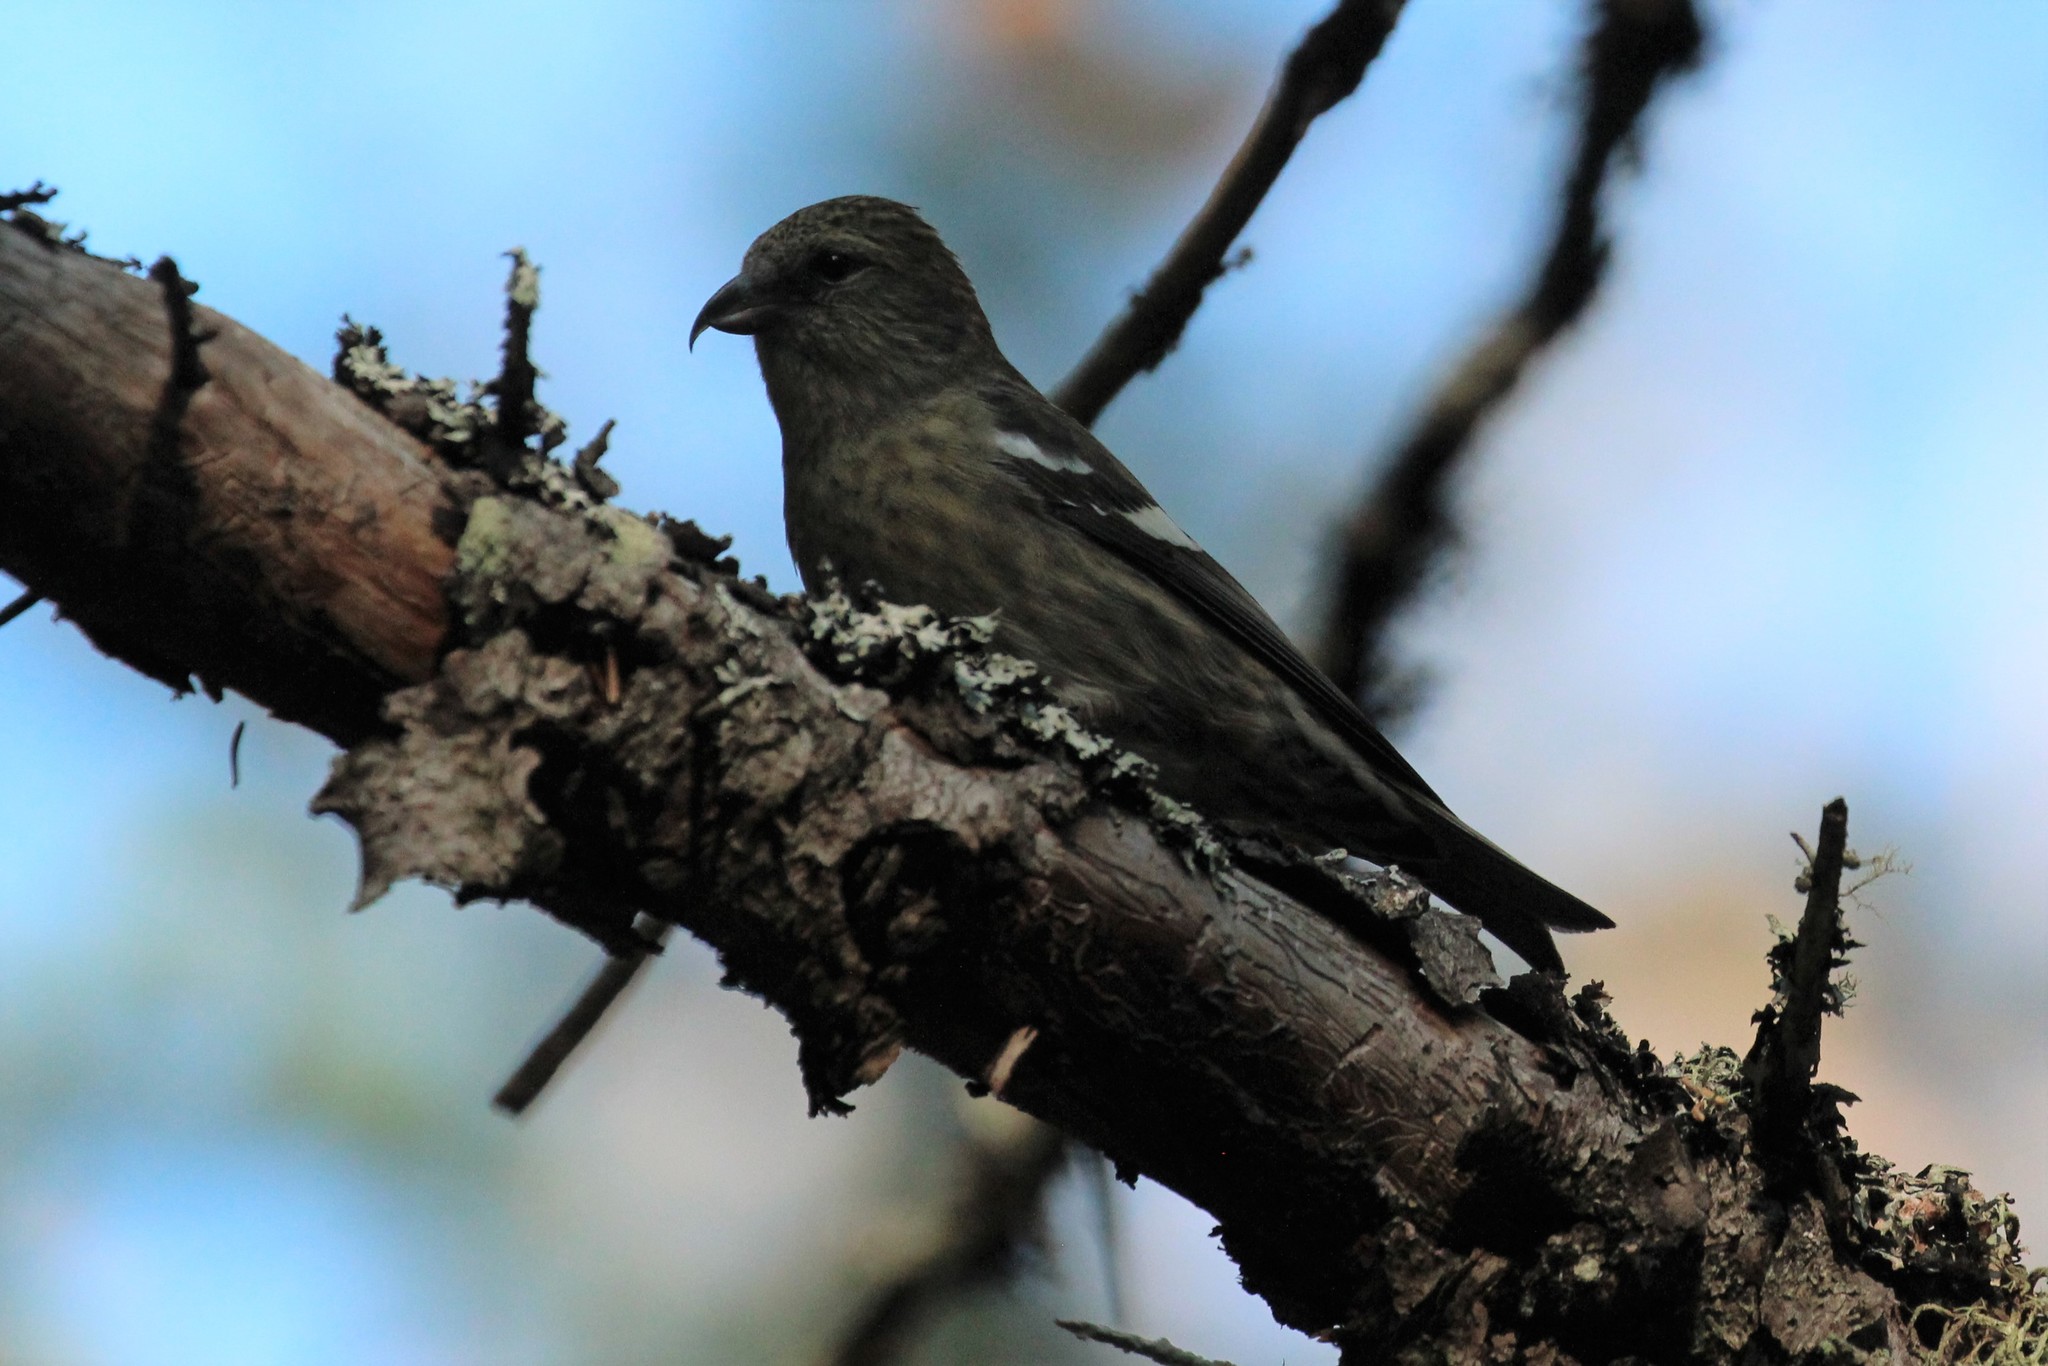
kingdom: Animalia
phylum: Chordata
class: Aves
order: Passeriformes
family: Fringillidae
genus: Loxia
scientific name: Loxia leucoptera
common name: Two-barred crossbill
